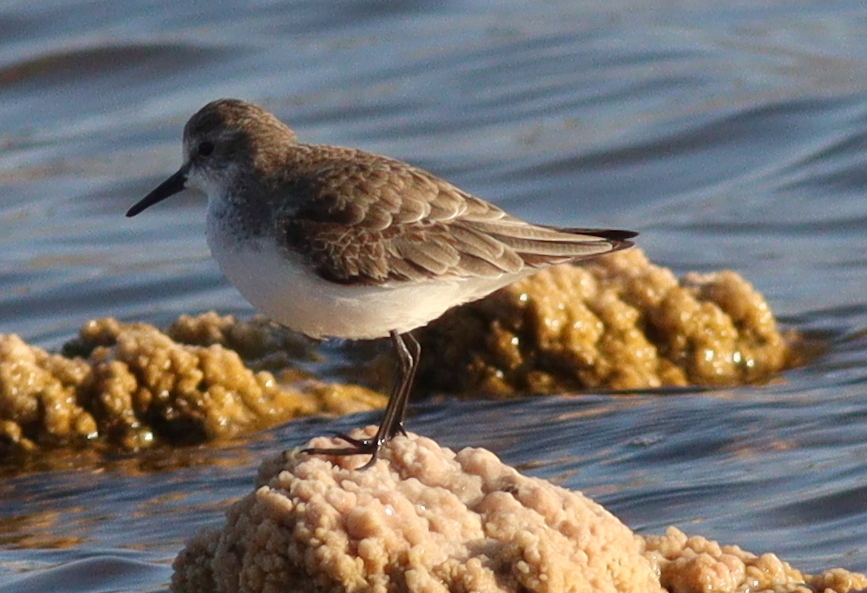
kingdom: Animalia
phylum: Chordata
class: Aves
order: Charadriiformes
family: Scolopacidae
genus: Calidris
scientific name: Calidris minuta
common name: Little stint
